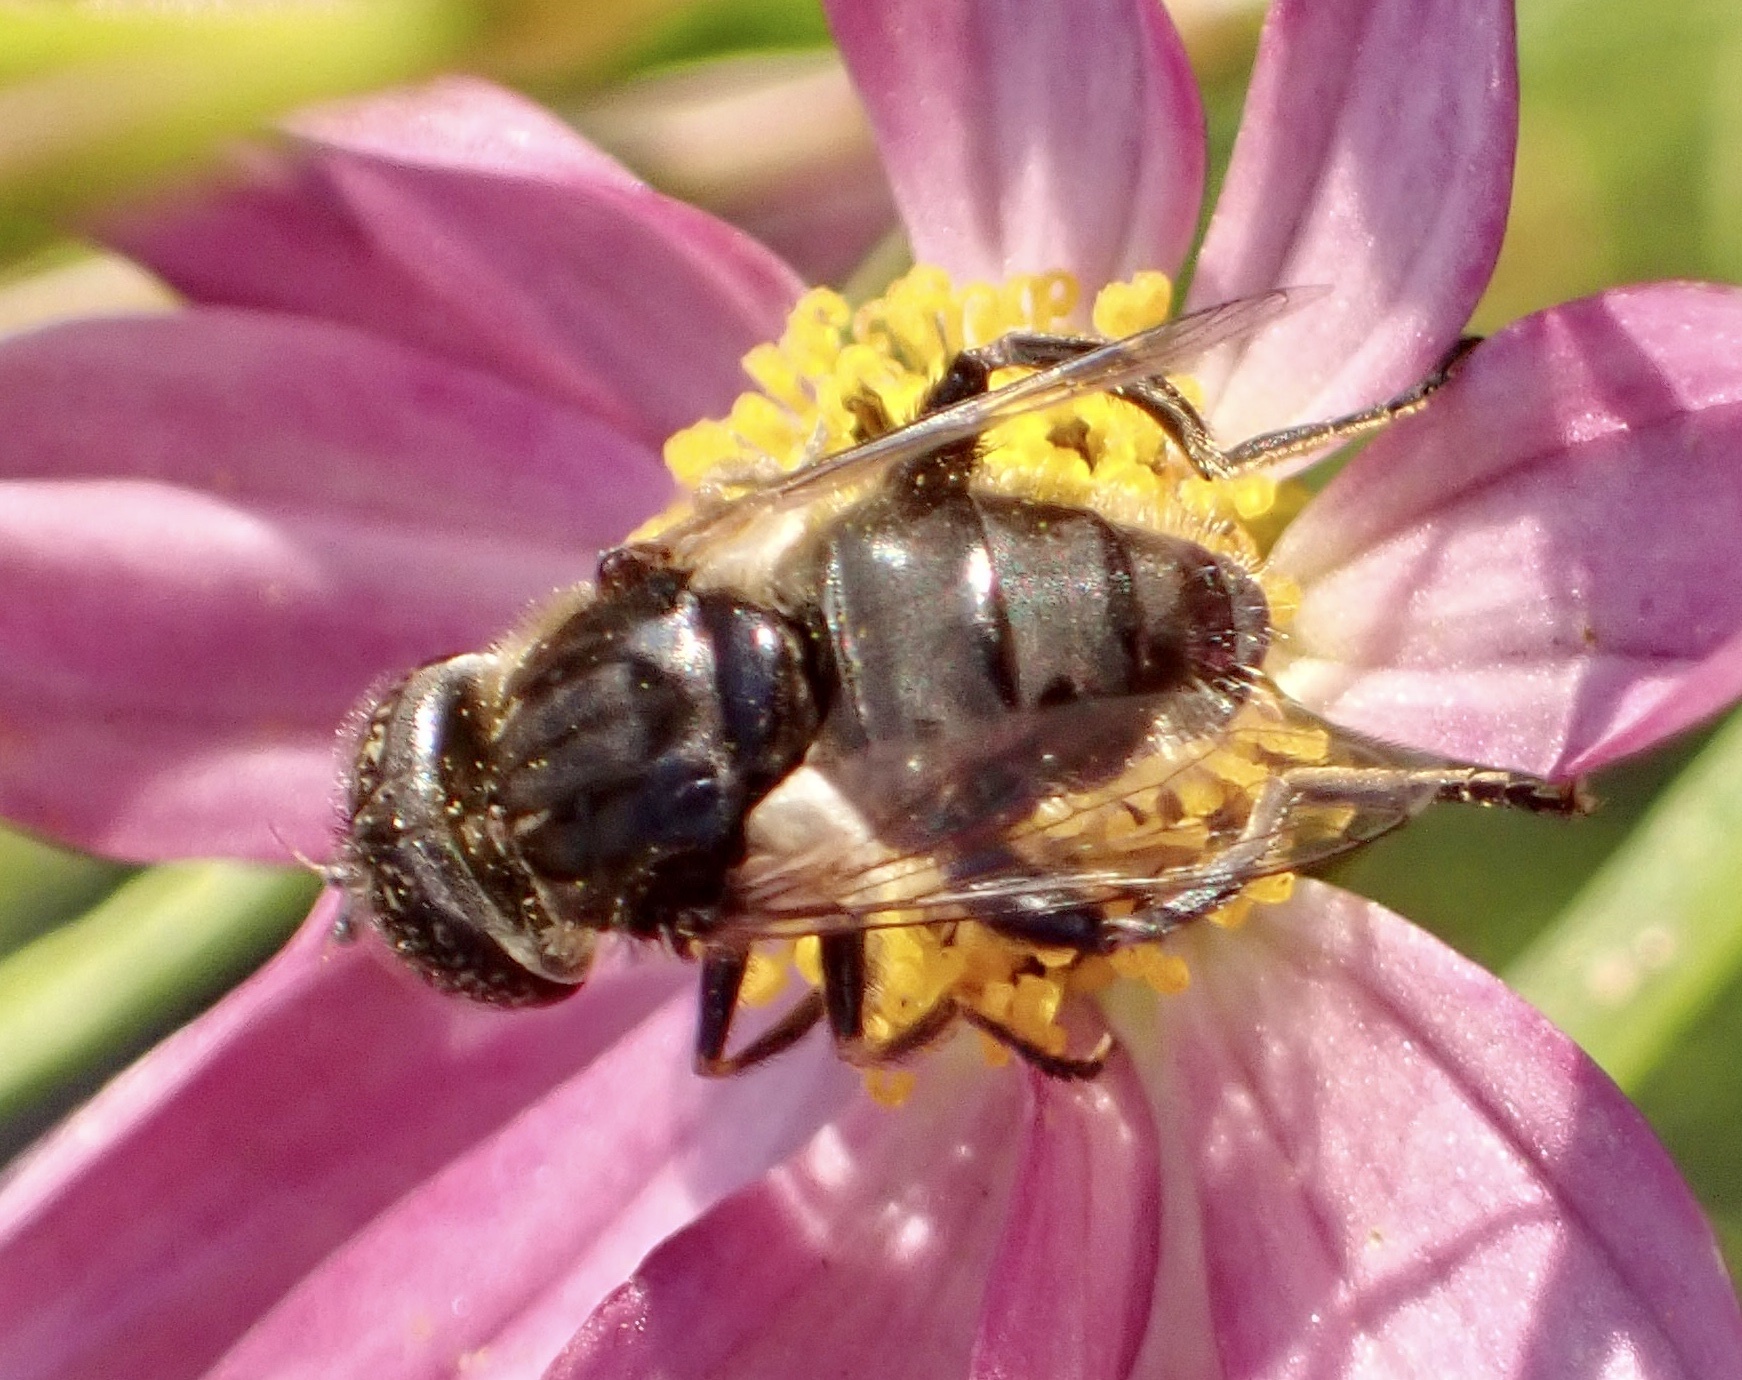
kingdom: Animalia
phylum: Arthropoda
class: Insecta
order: Diptera
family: Syrphidae
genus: Eristalinus
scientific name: Eristalinus sepulchralis
